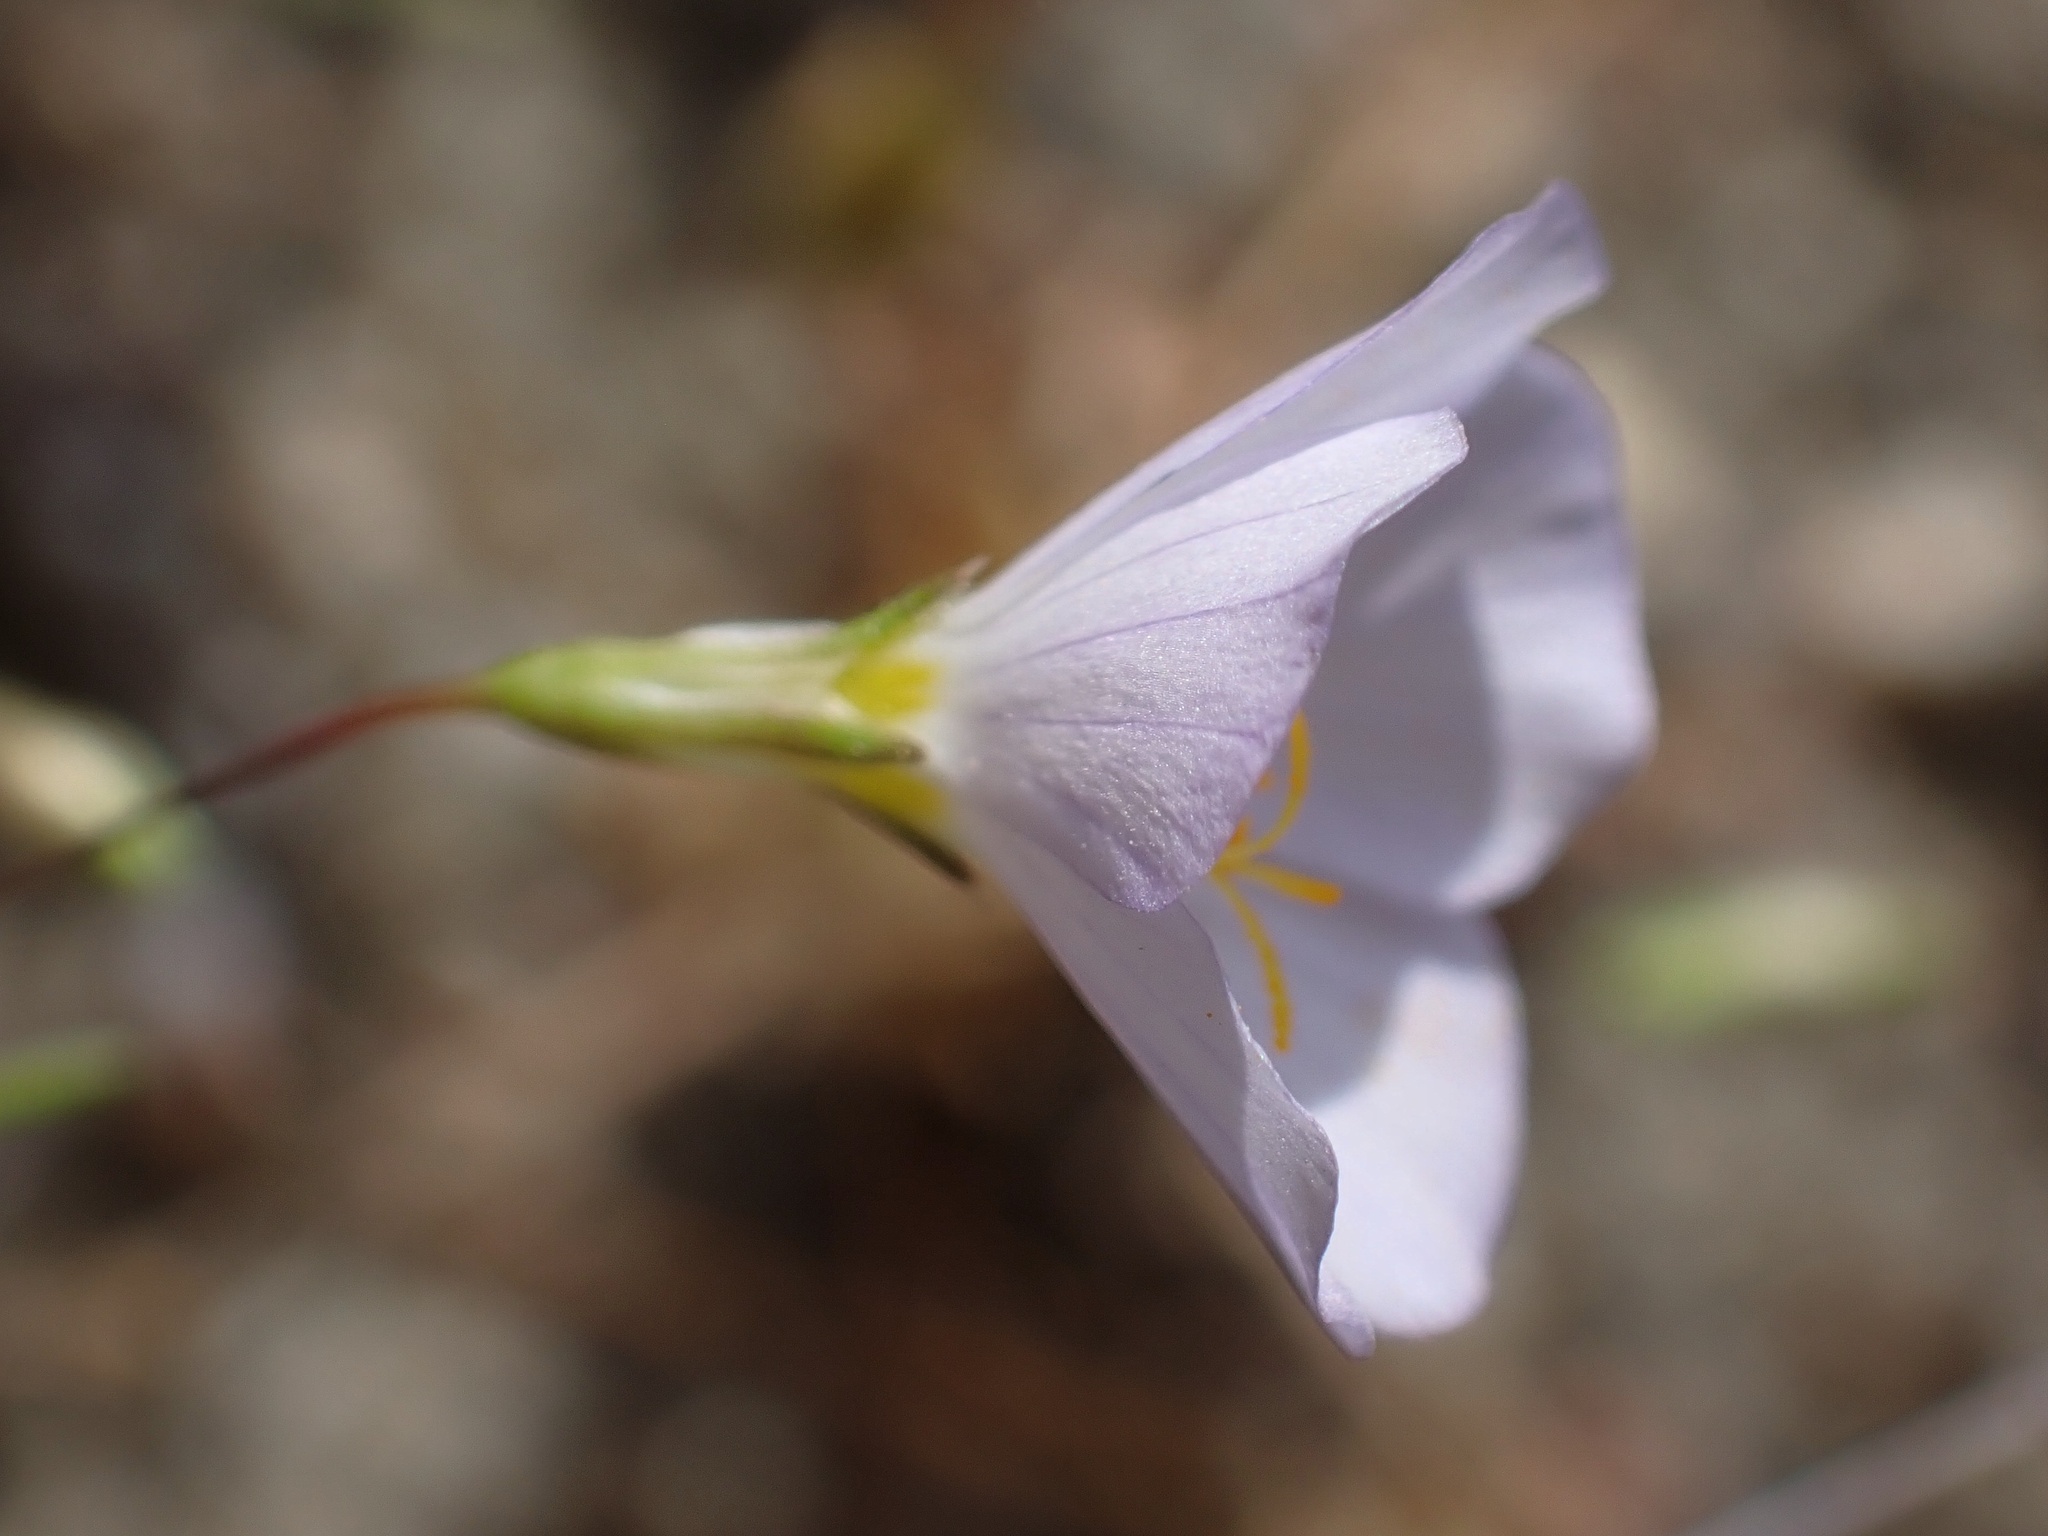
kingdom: Plantae
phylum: Tracheophyta
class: Magnoliopsida
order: Ericales
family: Polemoniaceae
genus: Leptosiphon
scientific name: Leptosiphon liniflorus
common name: Narrowflower flaxflower
